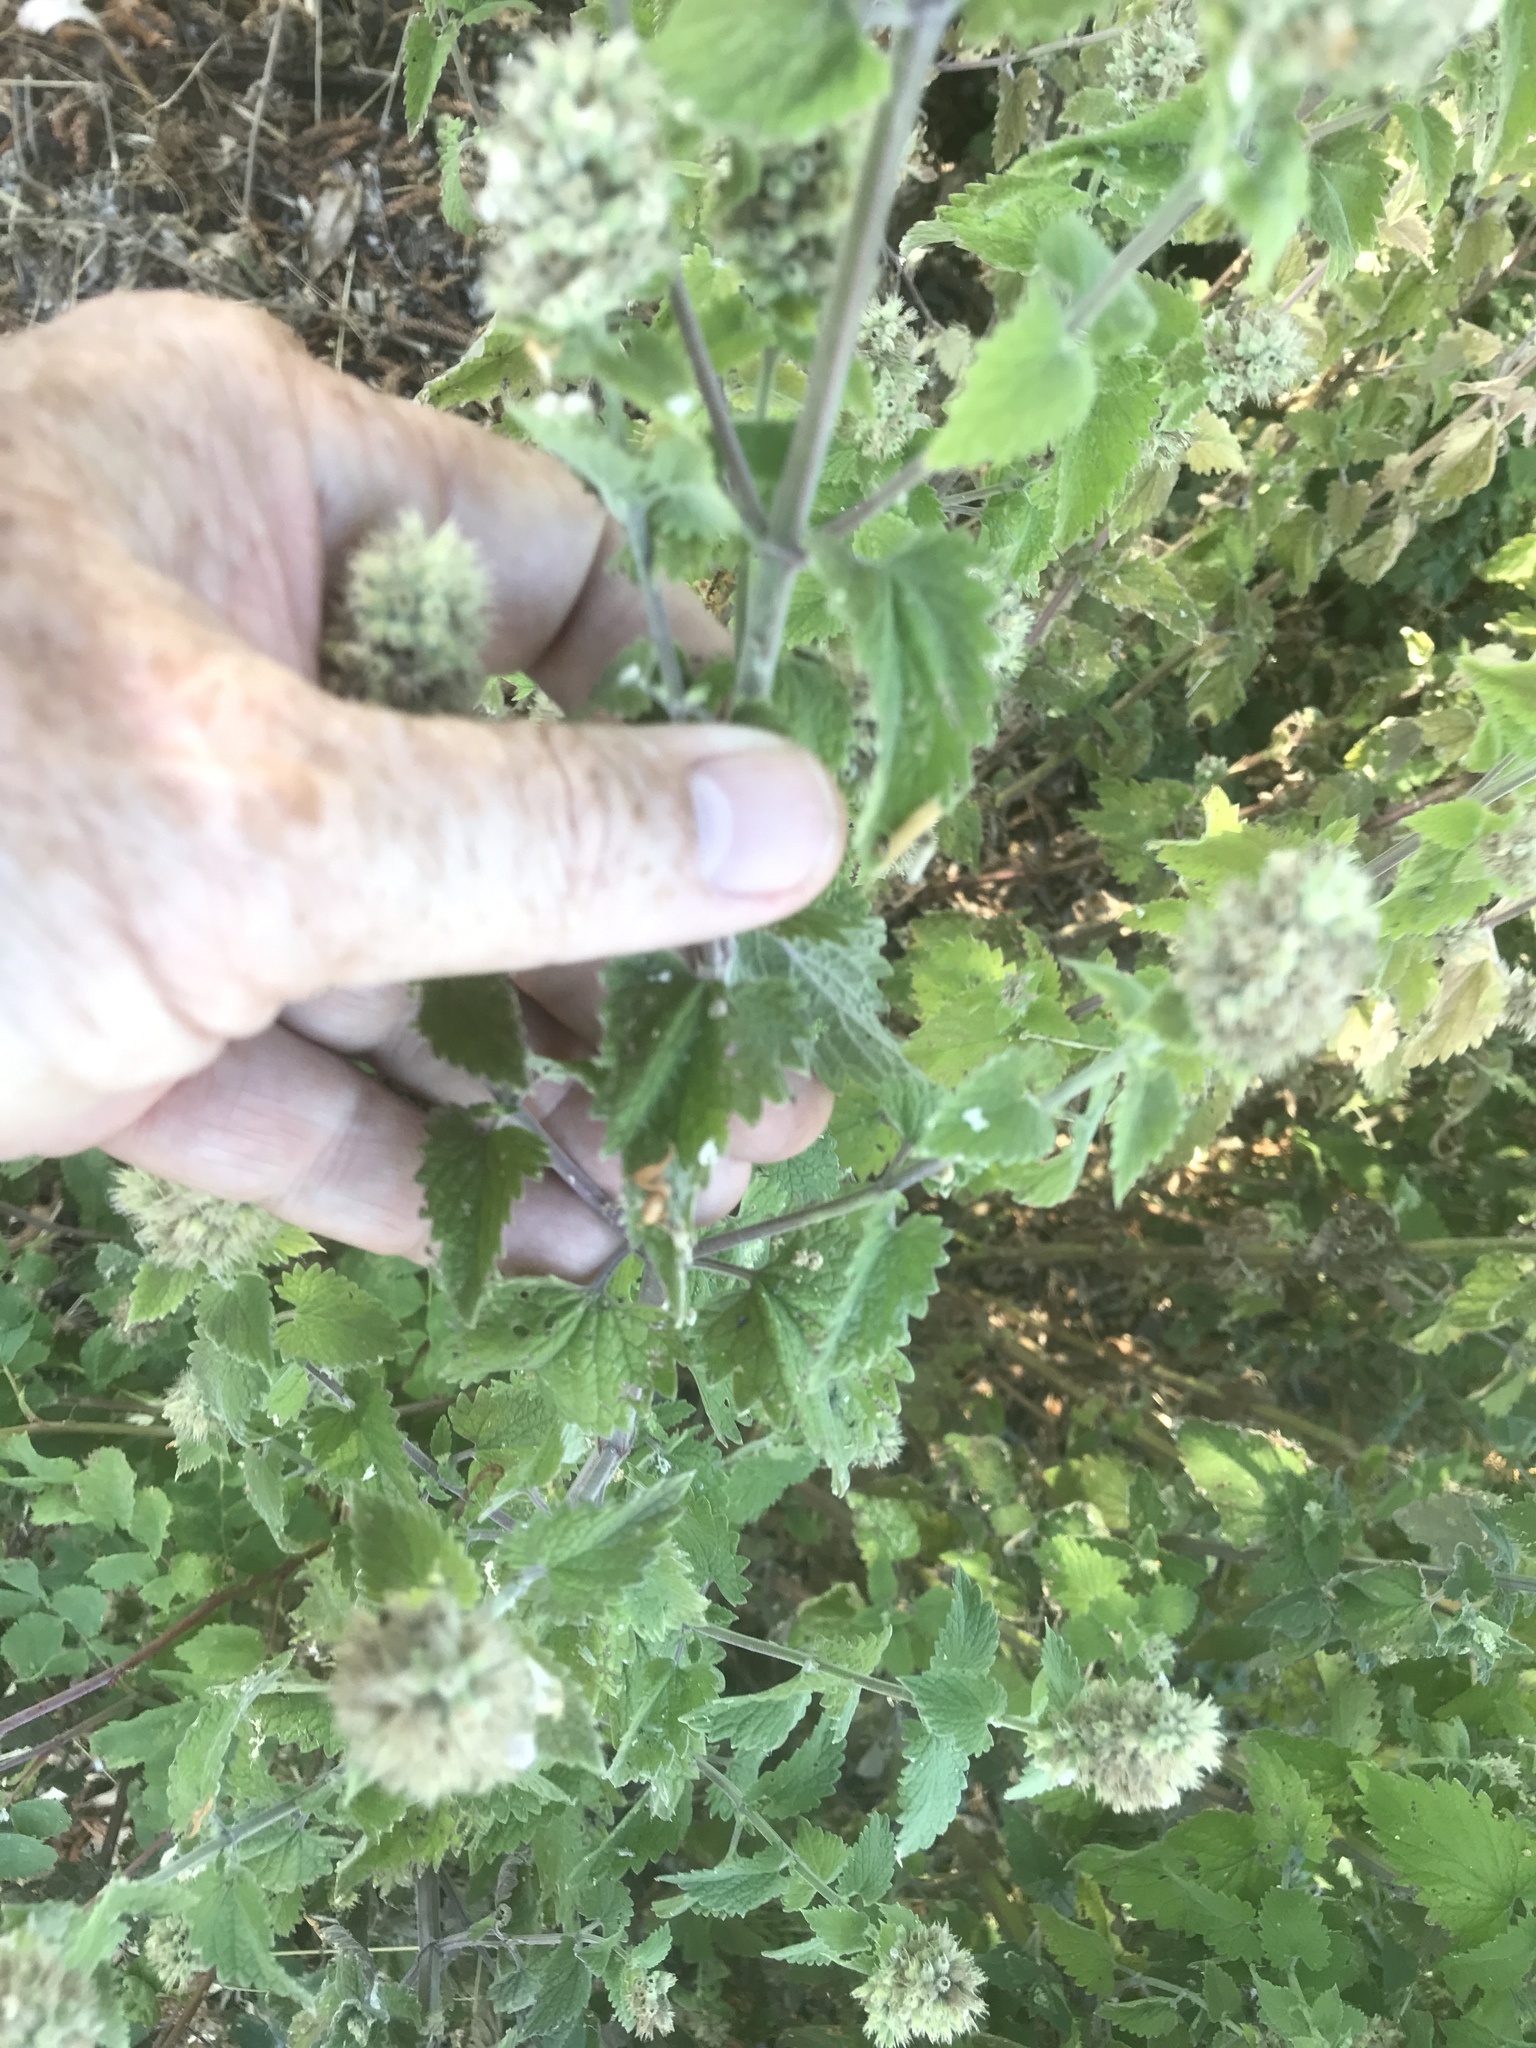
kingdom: Plantae
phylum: Tracheophyta
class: Magnoliopsida
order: Lamiales
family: Lamiaceae
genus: Nepeta
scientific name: Nepeta cataria
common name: Catnip
